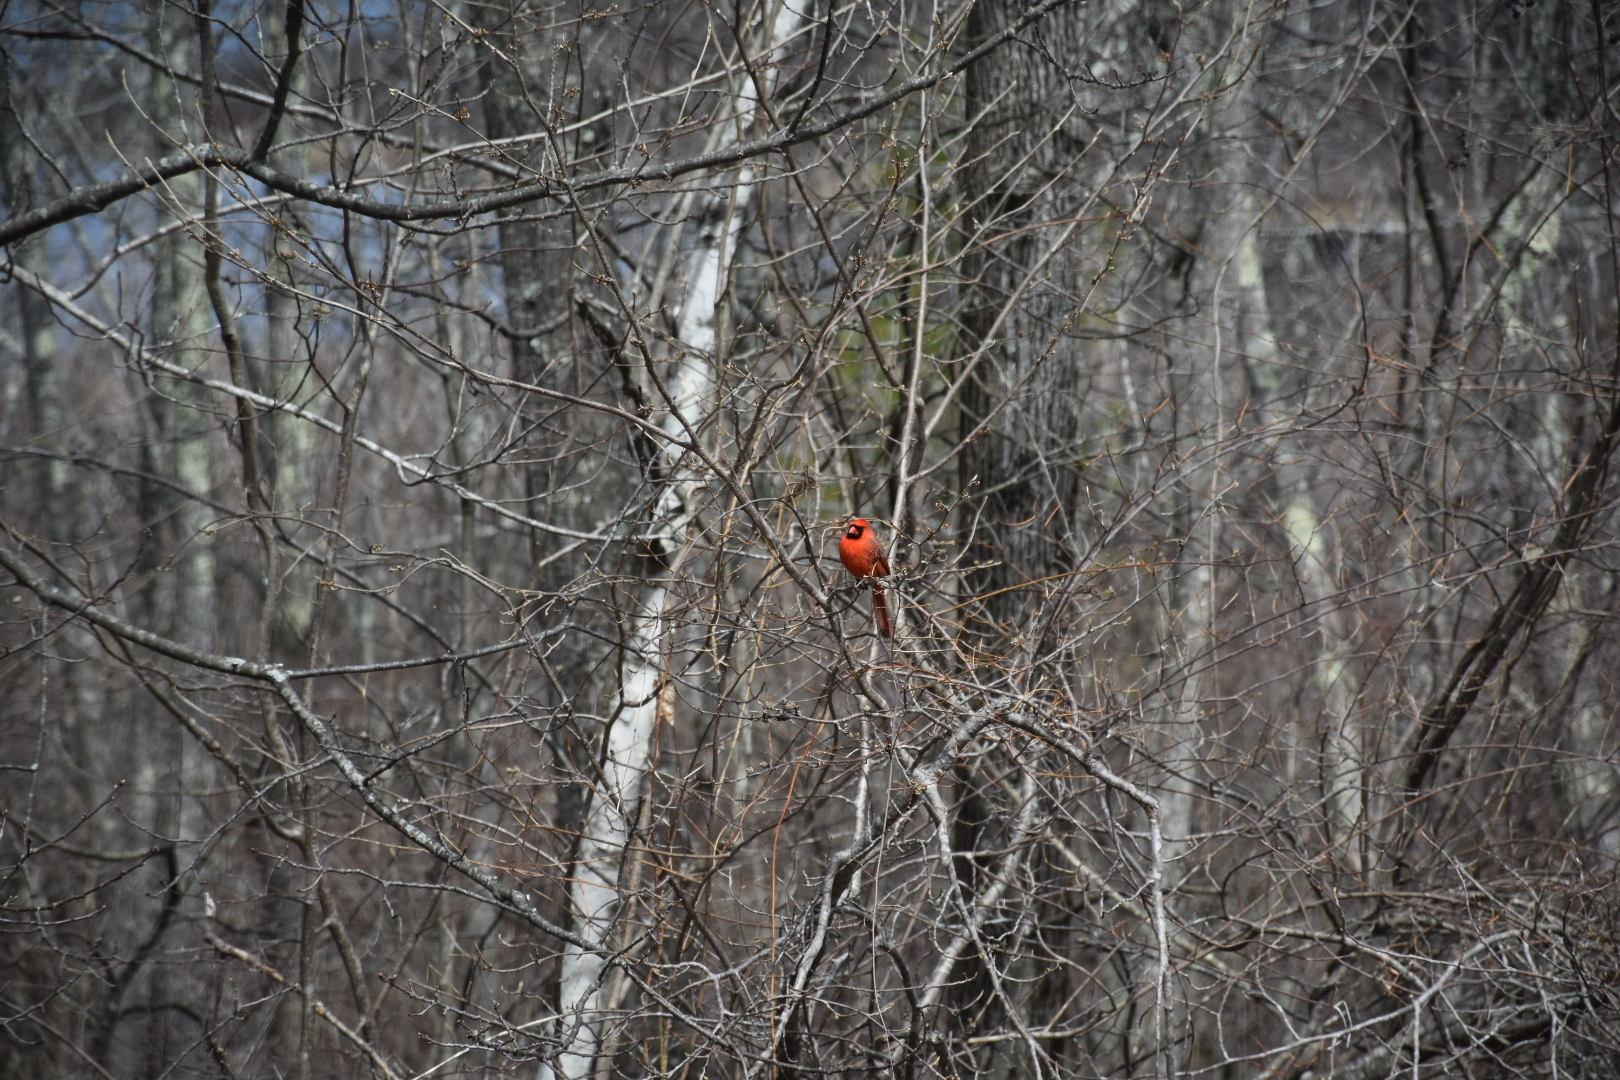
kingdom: Animalia
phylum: Chordata
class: Aves
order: Passeriformes
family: Cardinalidae
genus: Cardinalis
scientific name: Cardinalis cardinalis
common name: Northern cardinal
